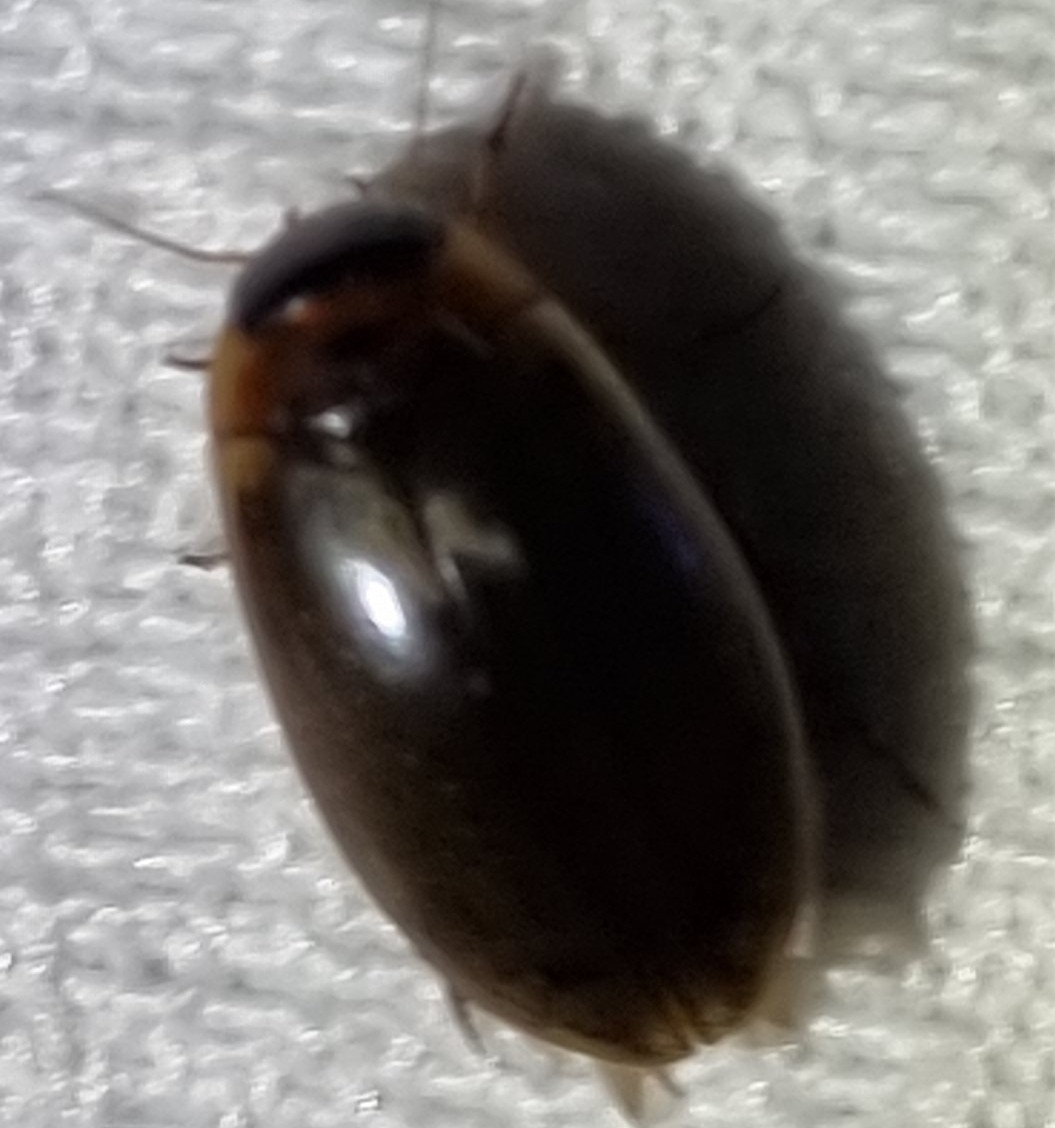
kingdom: Animalia
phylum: Arthropoda
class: Insecta
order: Coleoptera
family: Dytiscidae
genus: Rhantus
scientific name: Rhantus suturalis
